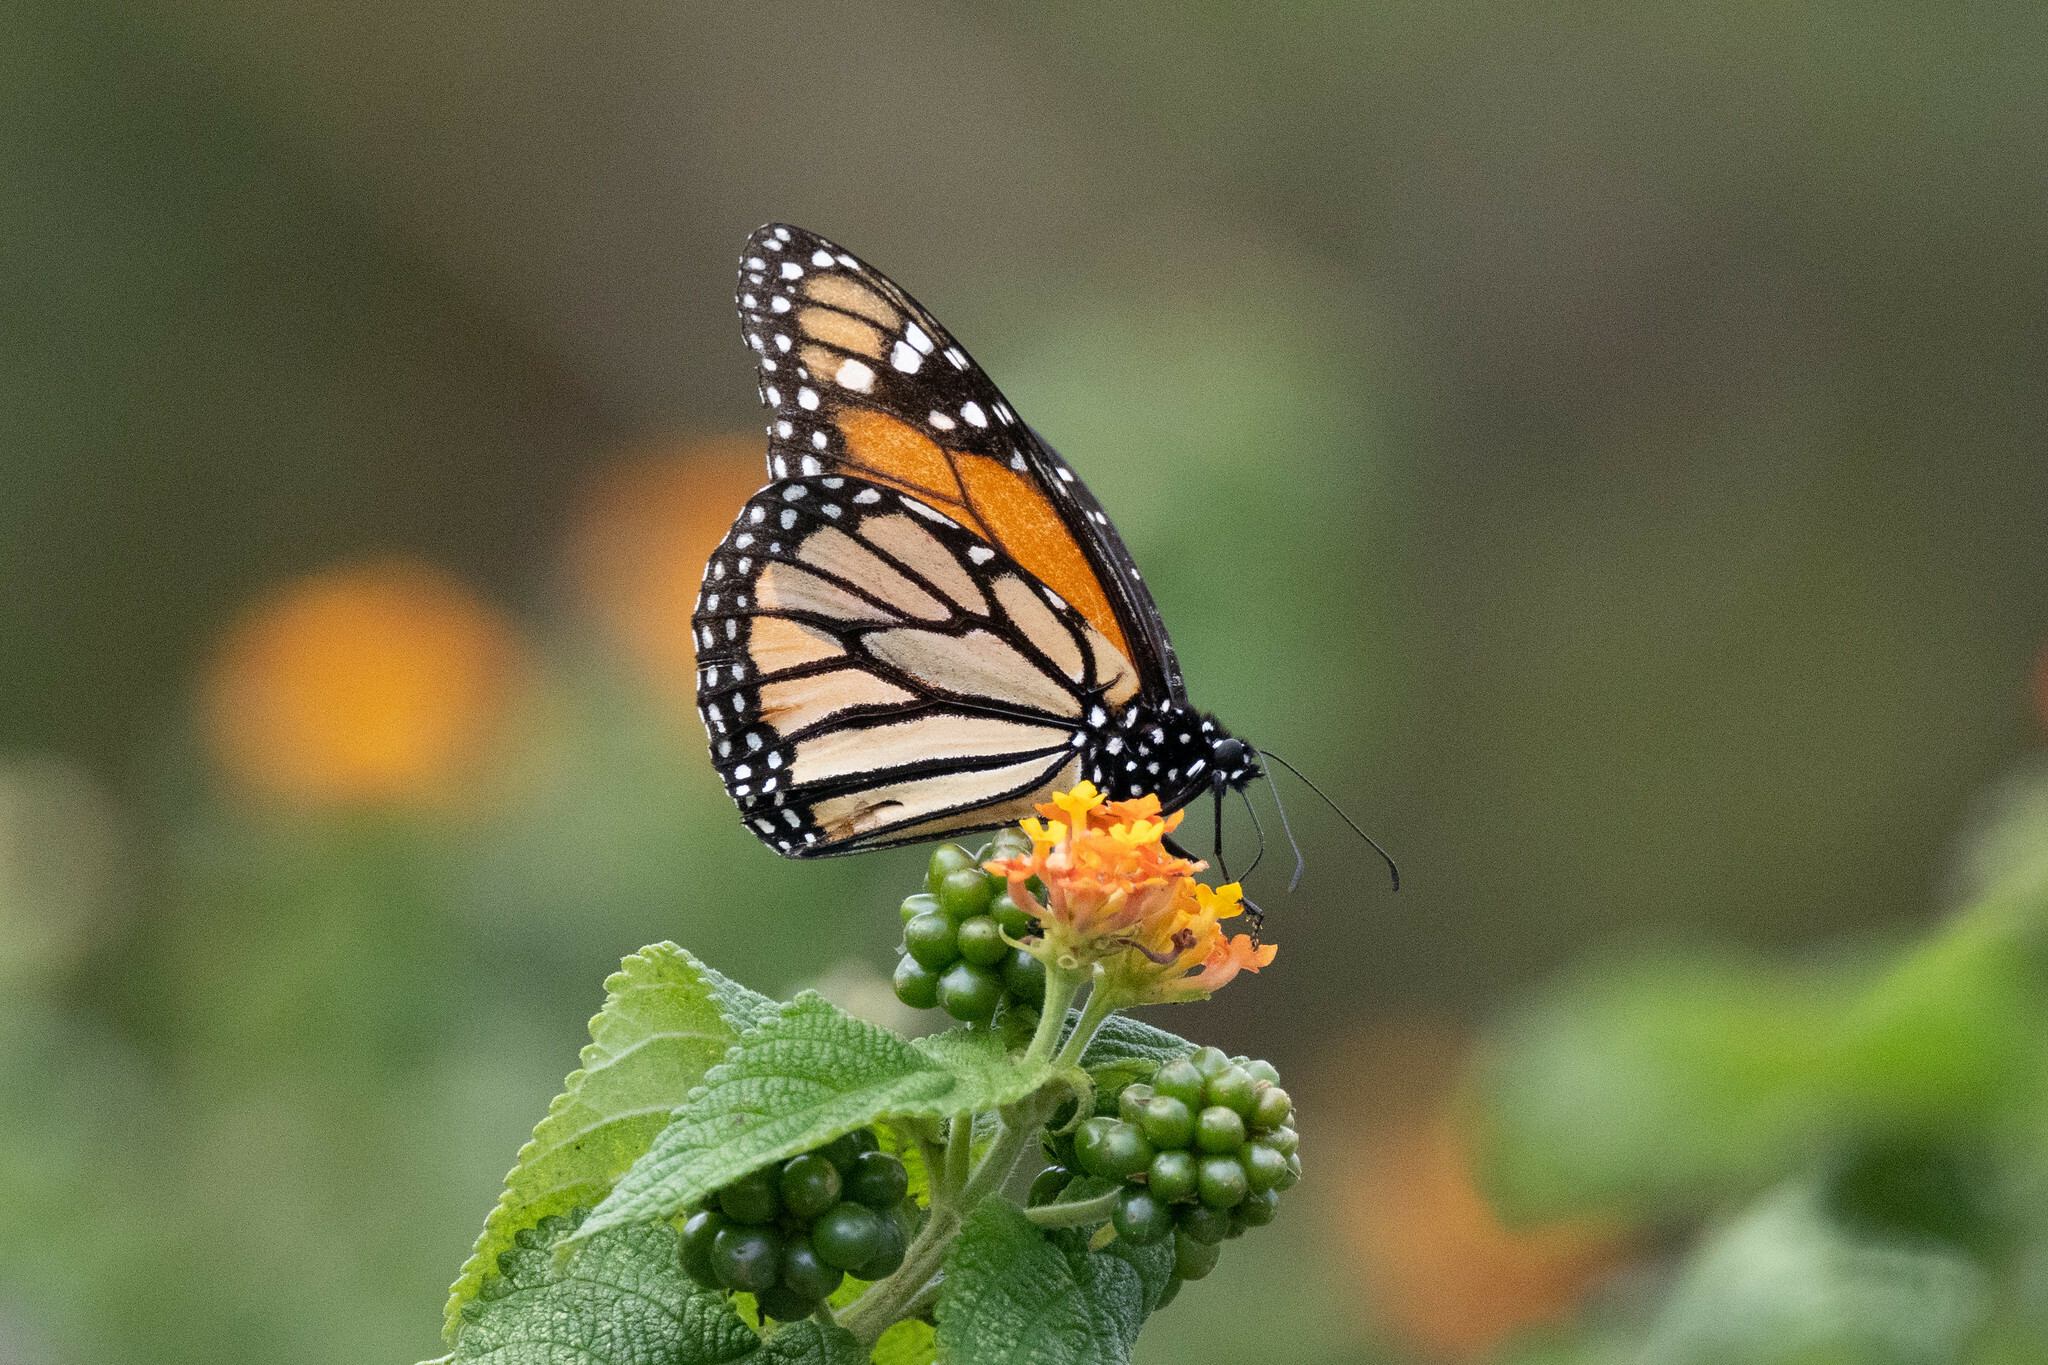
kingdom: Animalia
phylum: Arthropoda
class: Insecta
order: Lepidoptera
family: Nymphalidae
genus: Danaus
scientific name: Danaus plexippus
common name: Monarch
